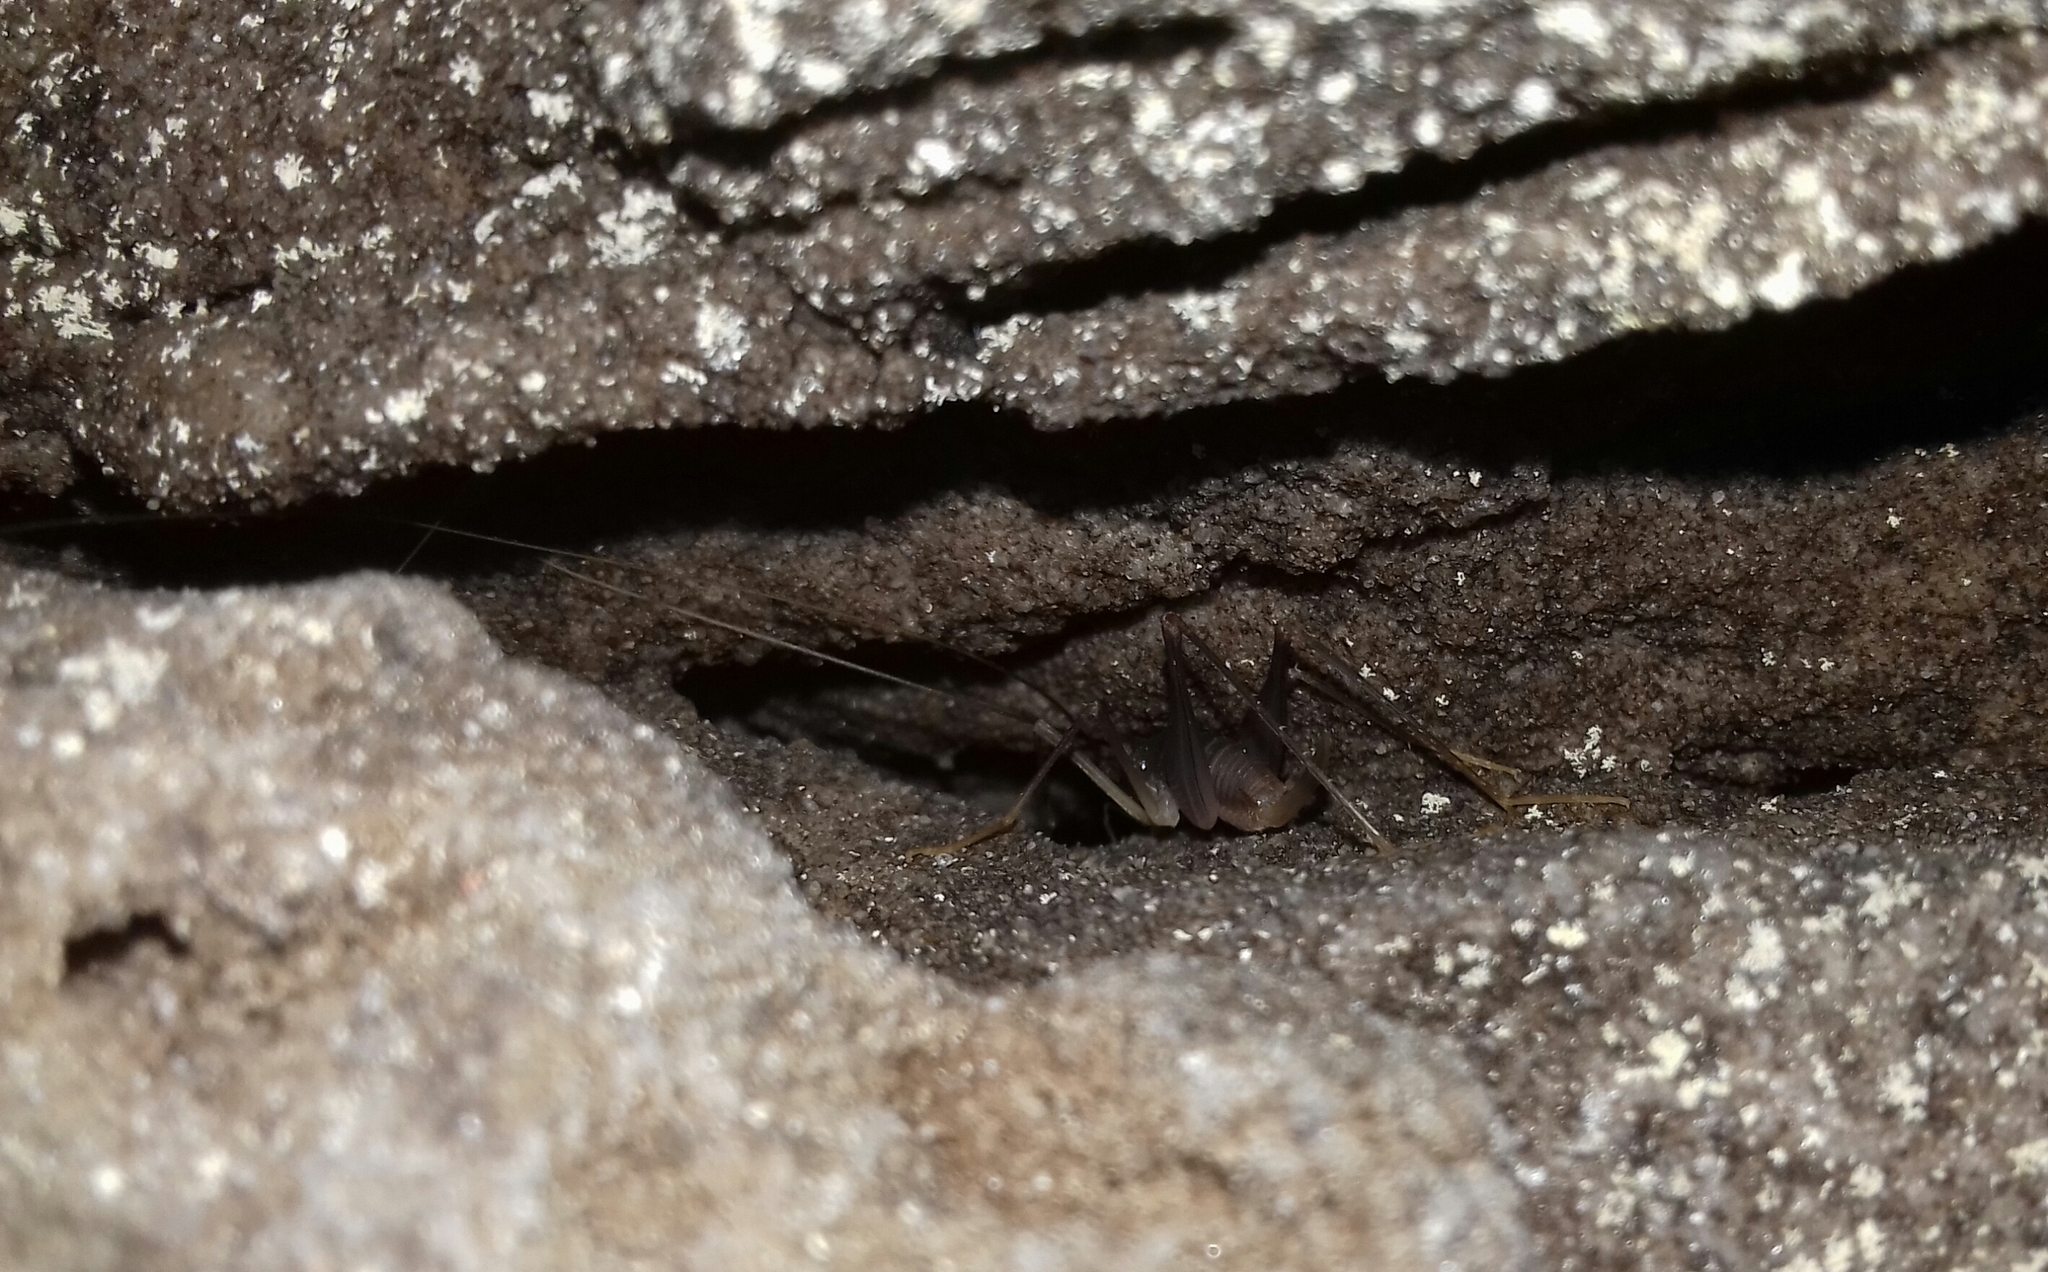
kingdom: Animalia
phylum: Arthropoda
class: Insecta
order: Orthoptera
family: Rhaphidophoridae
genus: Spelaeiacris
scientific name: Spelaeiacris tabulae
